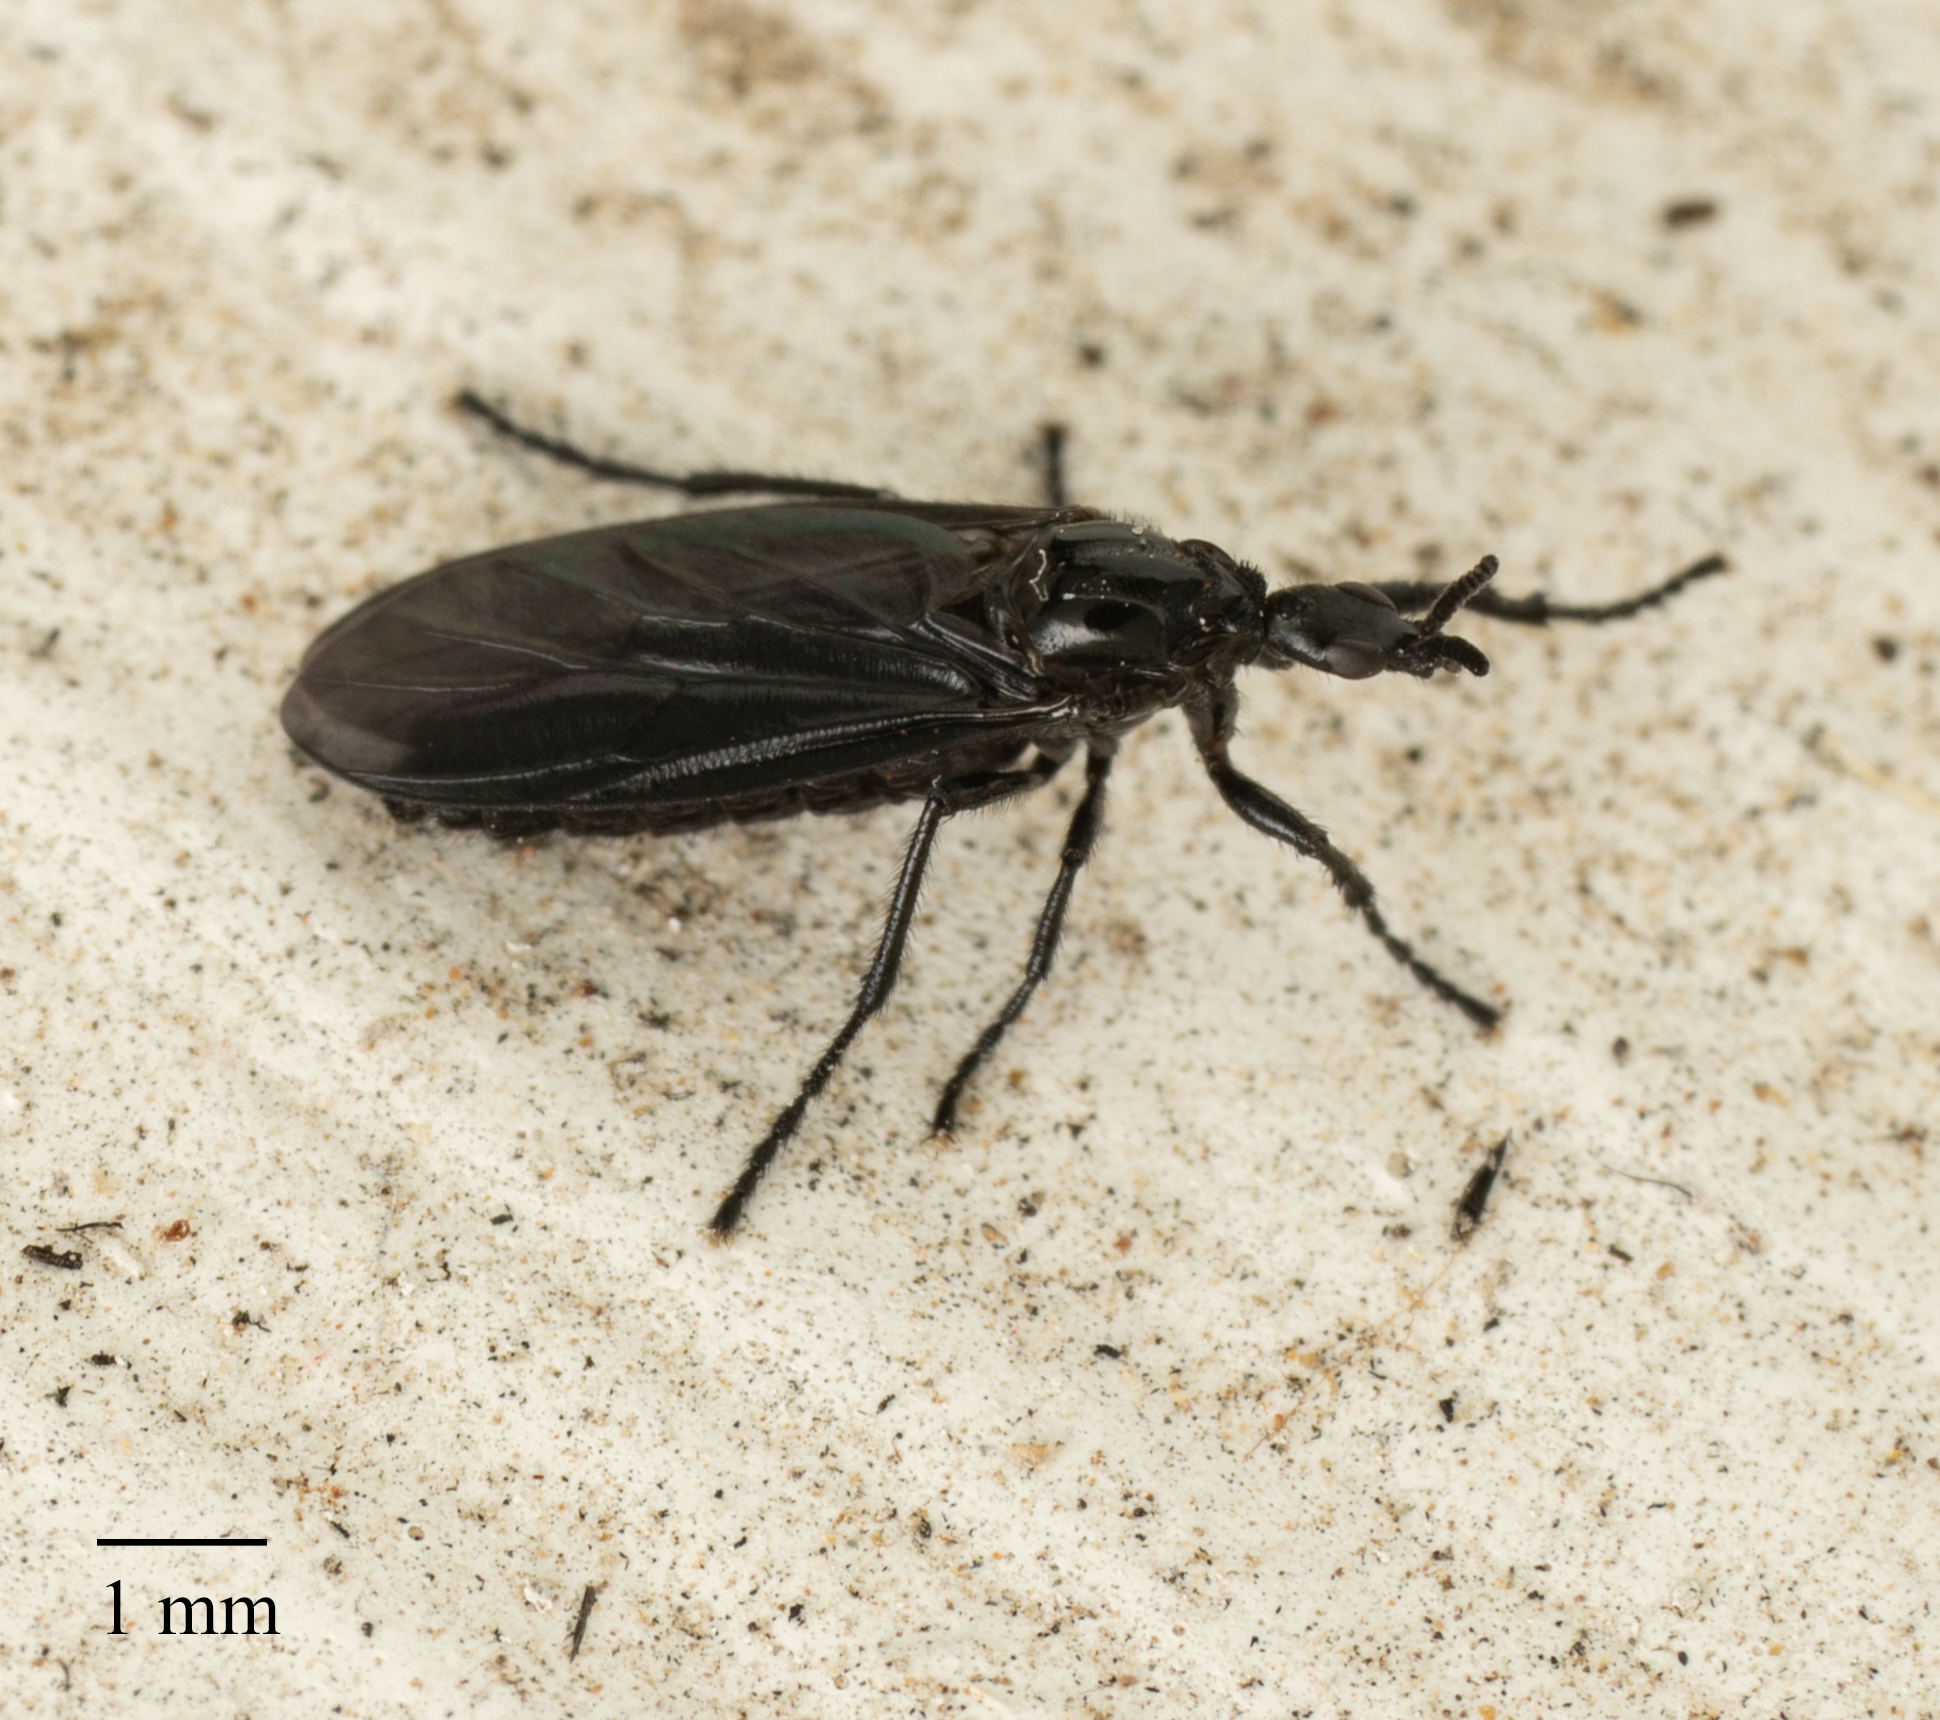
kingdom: Animalia
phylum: Arthropoda
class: Insecta
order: Diptera
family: Bibionidae
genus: Dilophus
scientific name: Dilophus orbatus
